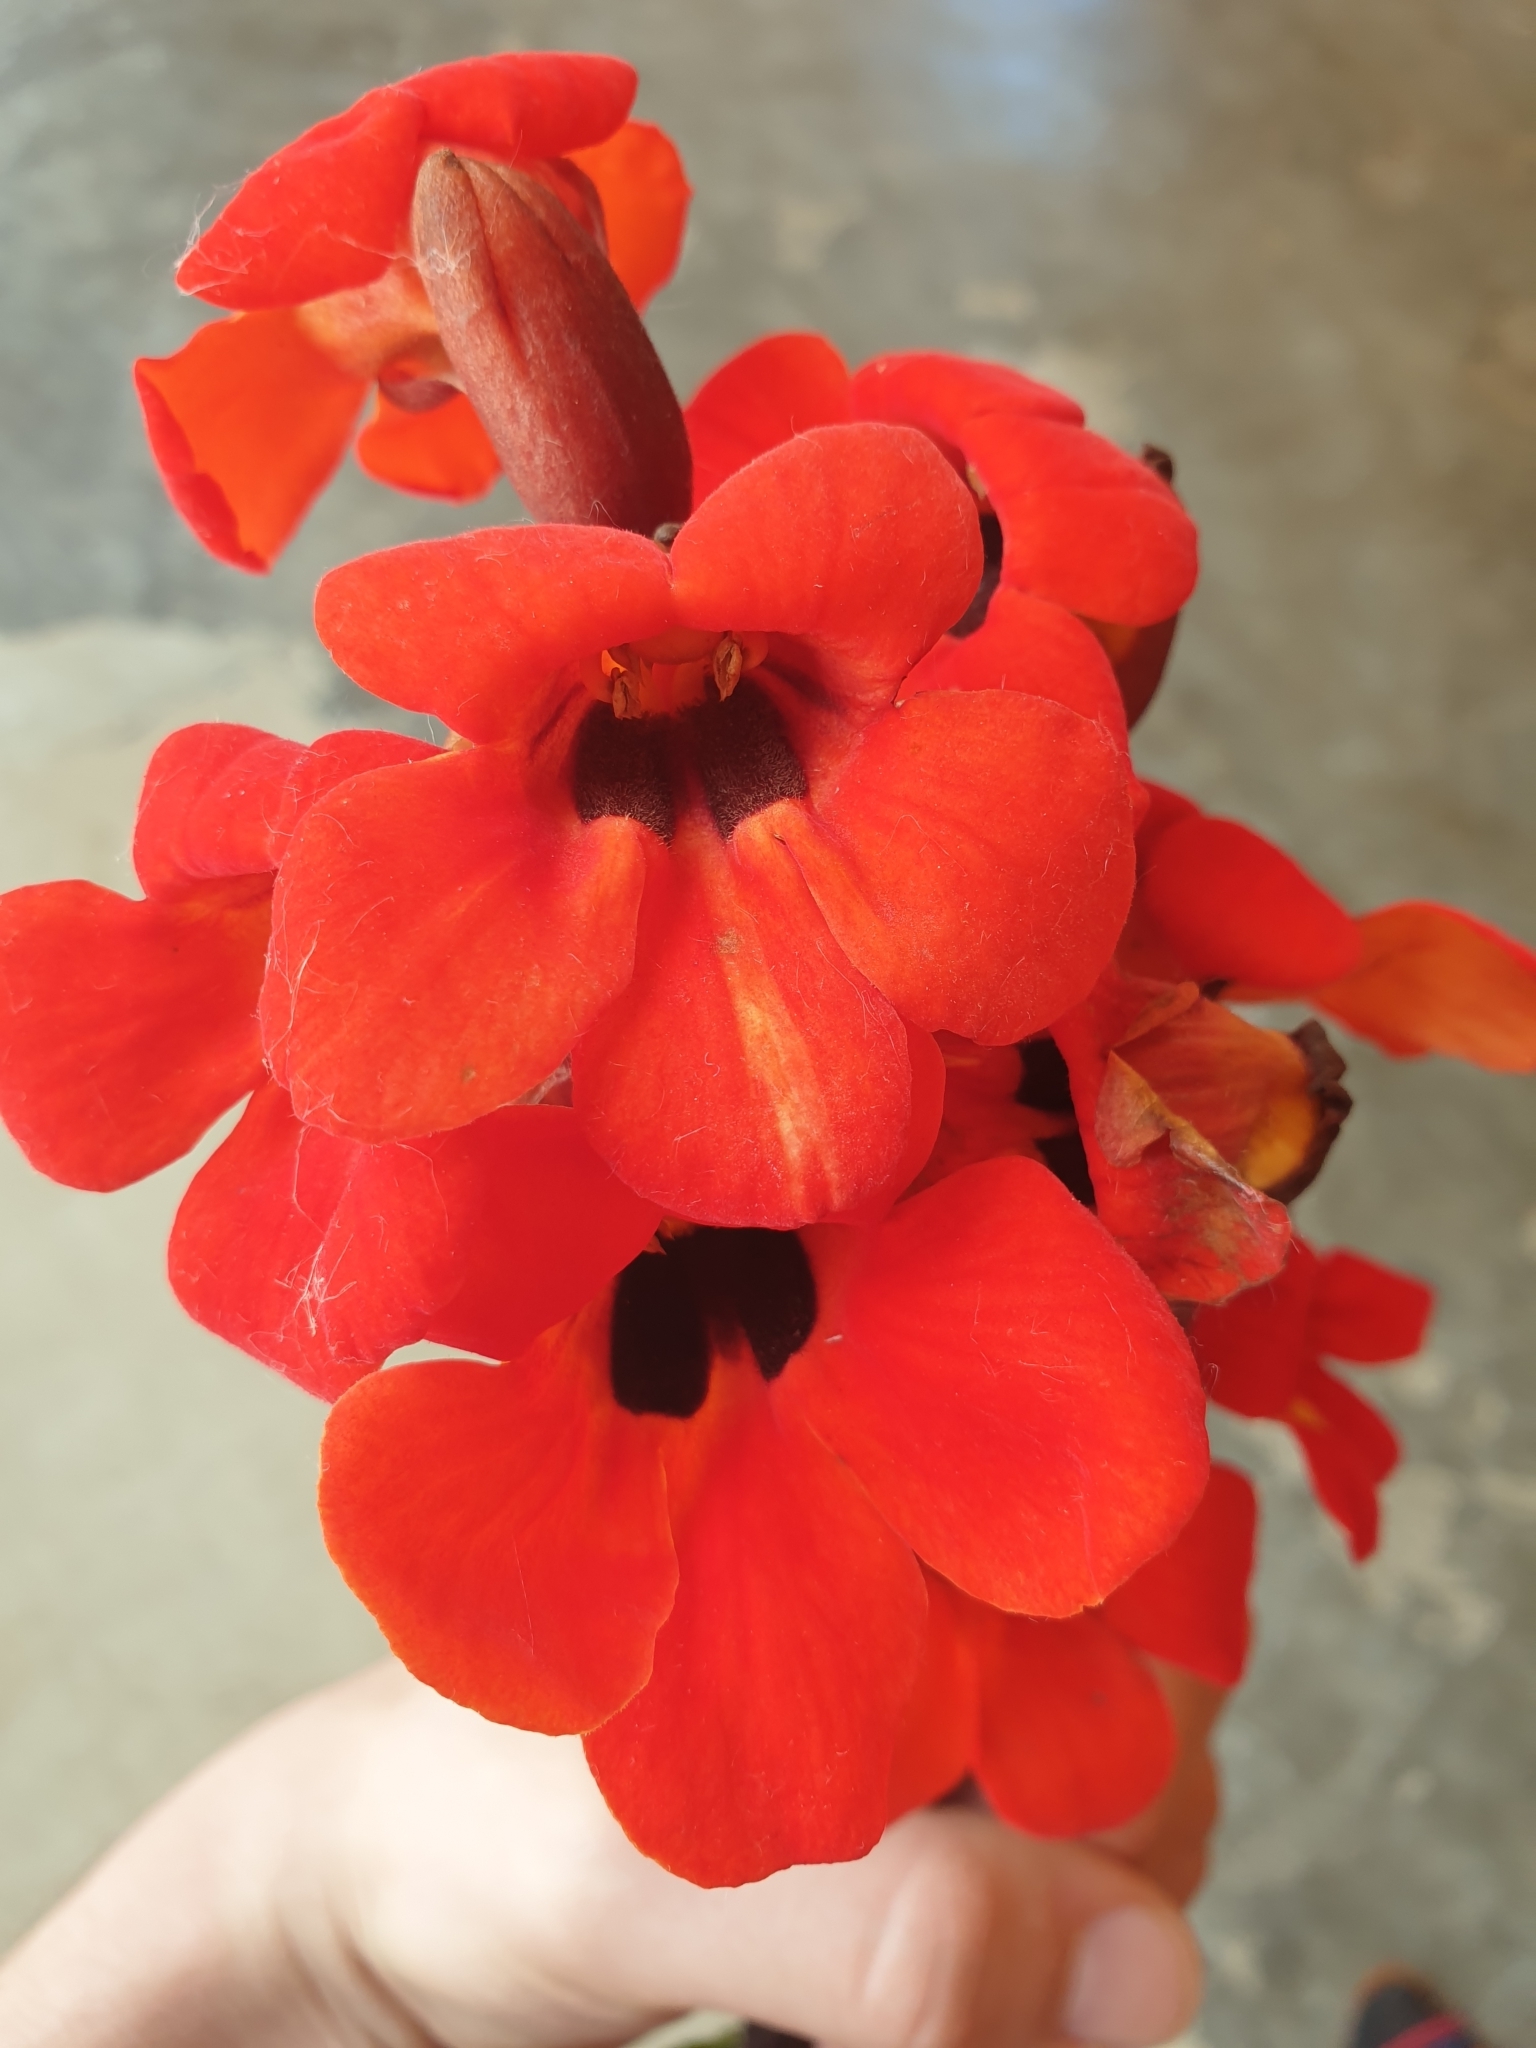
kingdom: Plantae
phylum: Tracheophyta
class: Magnoliopsida
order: Lamiales
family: Orobanchaceae
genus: Diphelypaea
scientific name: Diphelypaea coccinea
